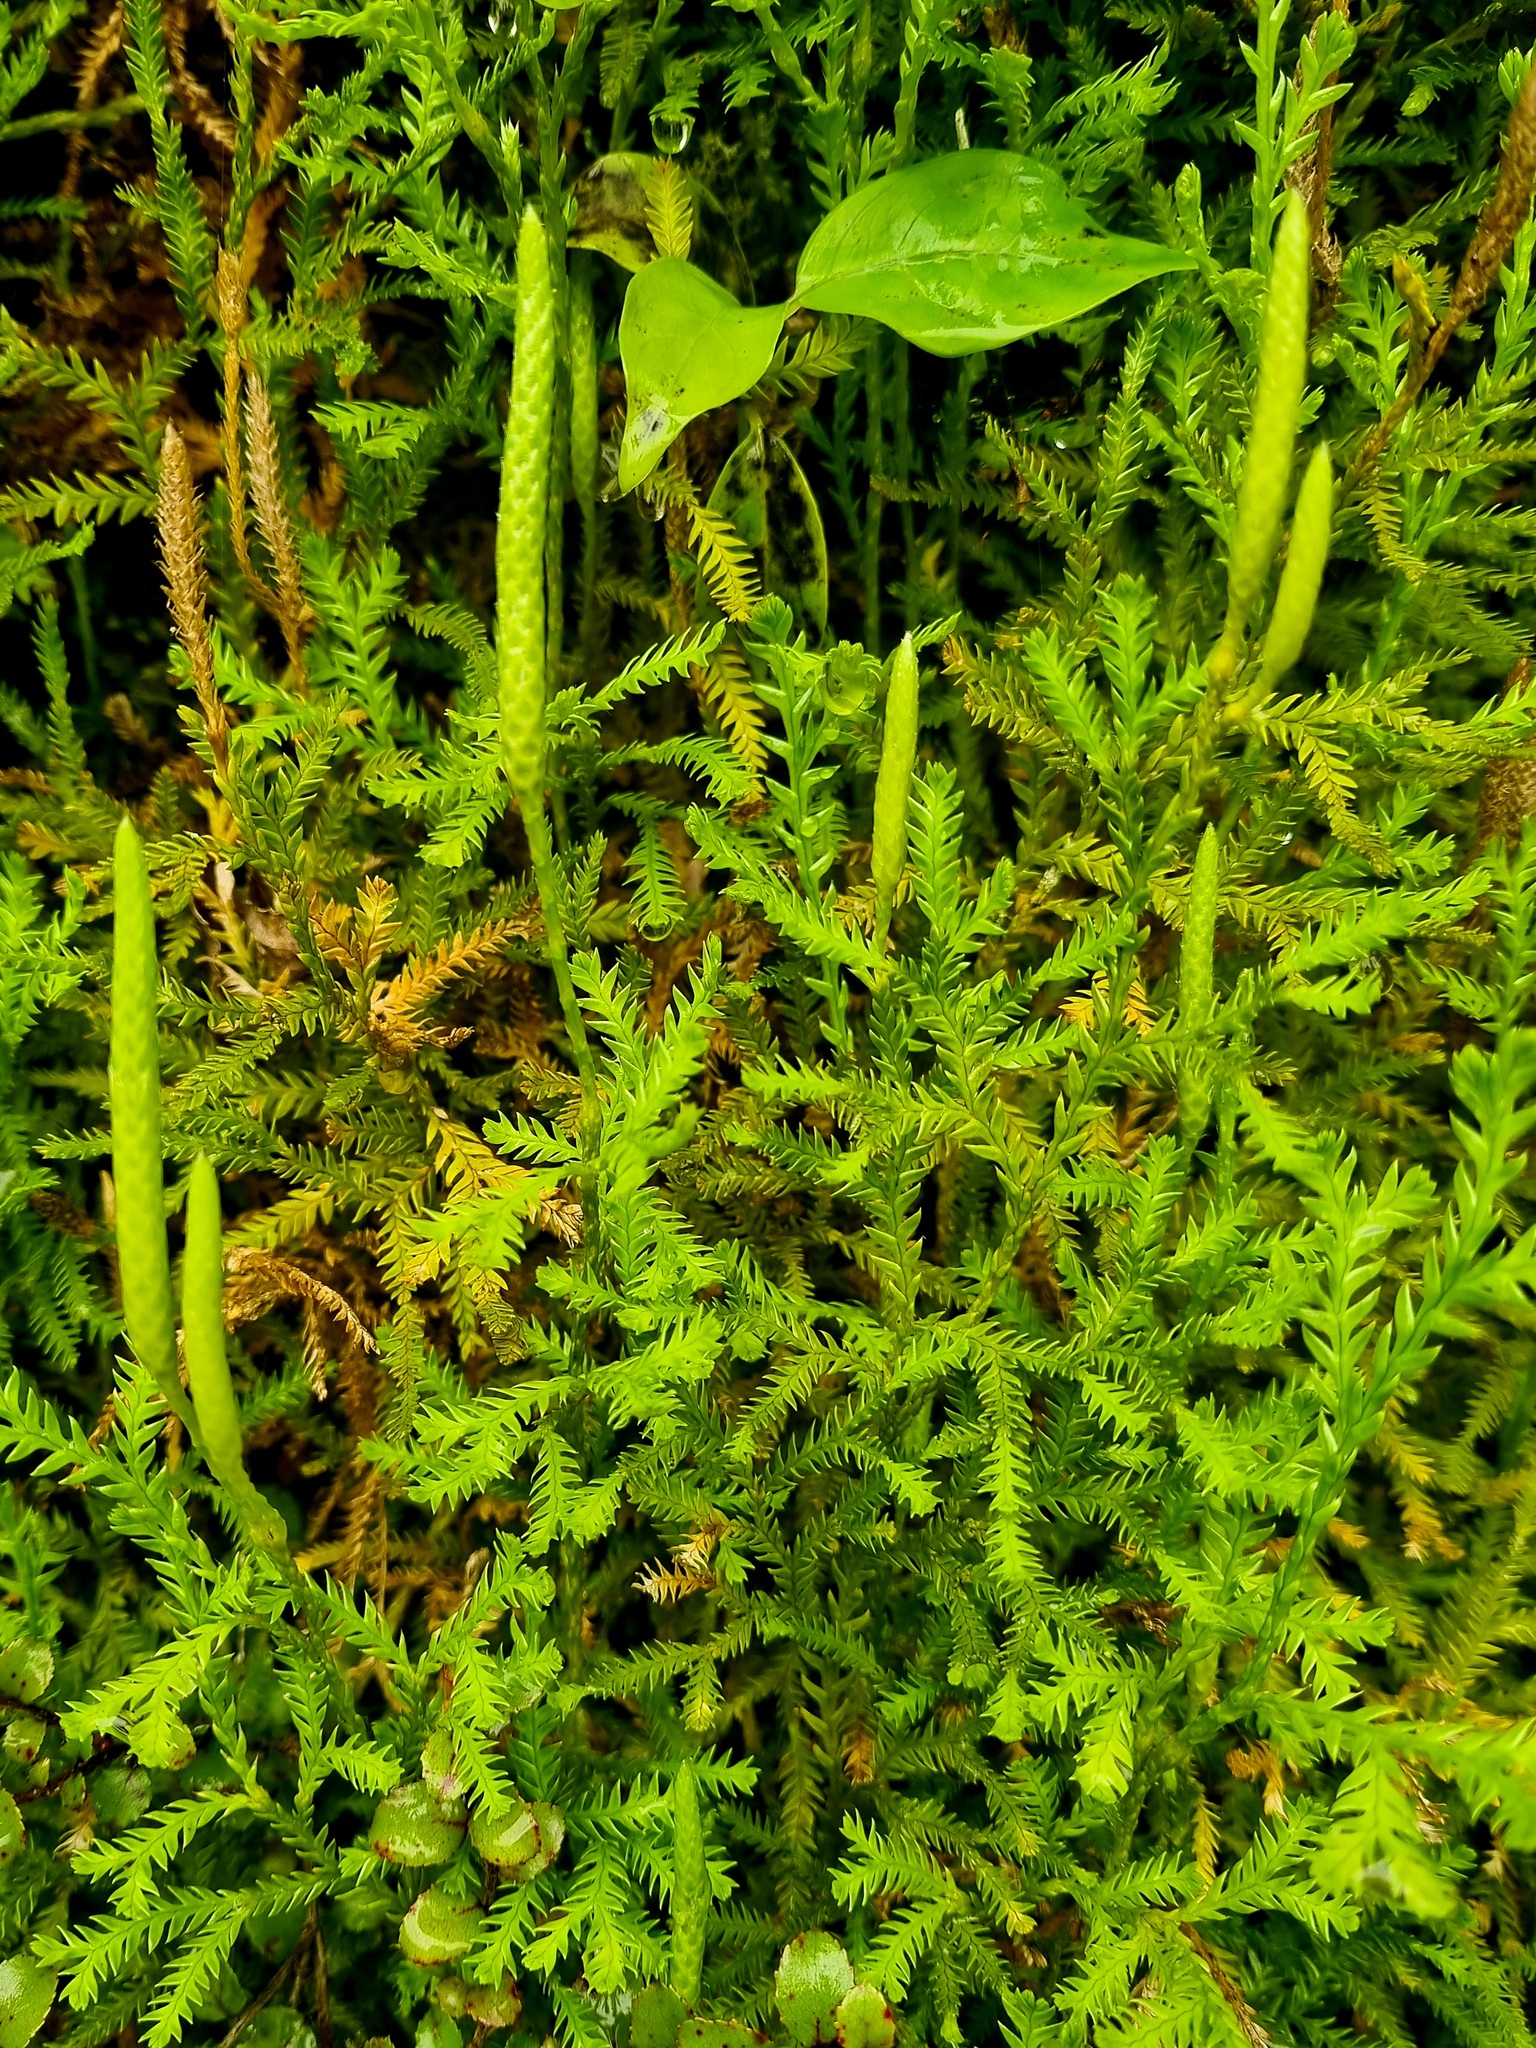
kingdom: Plantae
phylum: Tracheophyta
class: Lycopodiopsida
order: Lycopodiales
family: Lycopodiaceae
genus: Diphasium
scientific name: Diphasium scariosum
